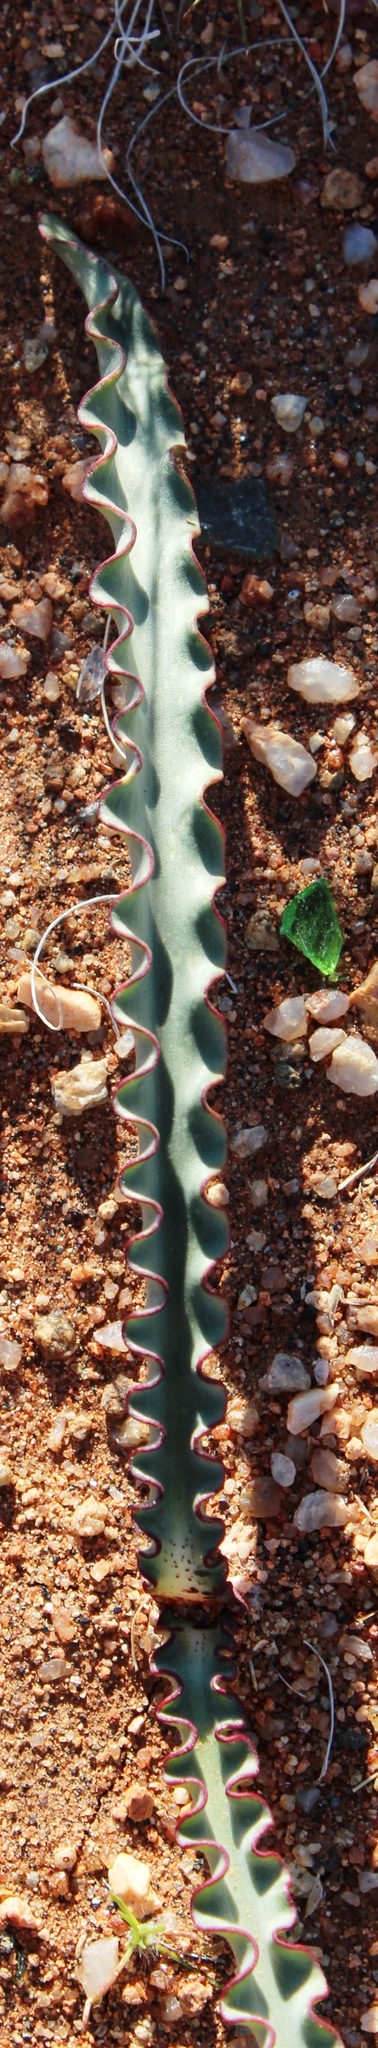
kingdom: Plantae
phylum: Tracheophyta
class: Liliopsida
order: Asparagales
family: Amaryllidaceae
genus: Haemanthus
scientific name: Haemanthus crispus
